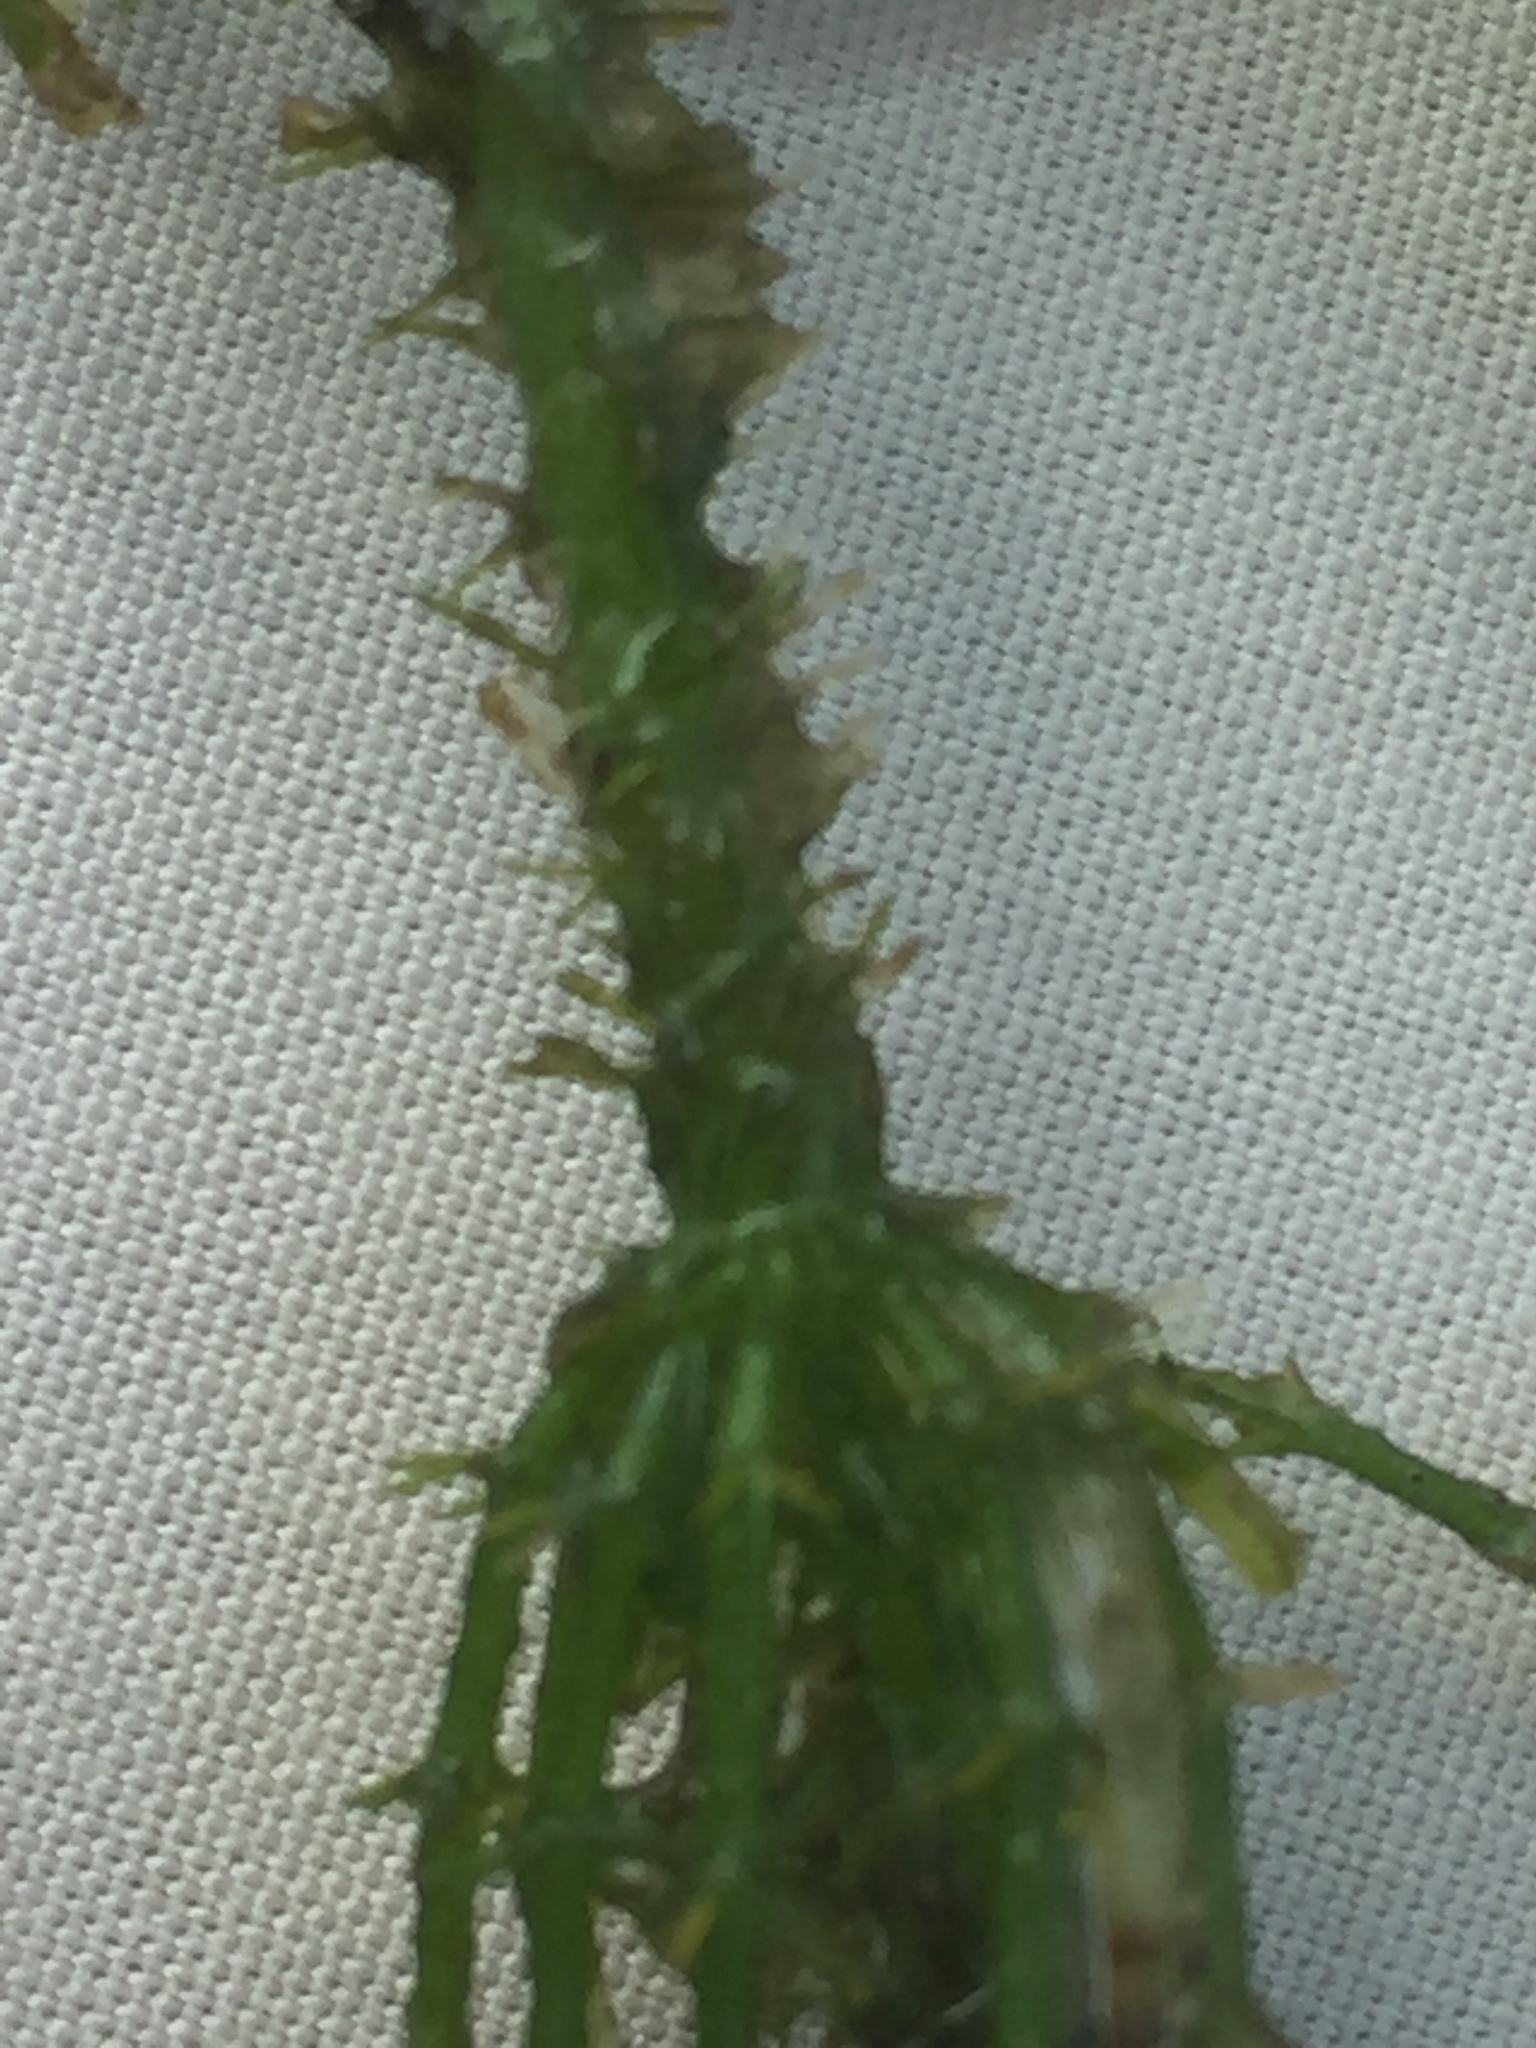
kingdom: Plantae
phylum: Charophyta
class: Charophyceae
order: Charales
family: Characeae
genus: Chara
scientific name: Chara aculeolata
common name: Hedgehog stonewort
